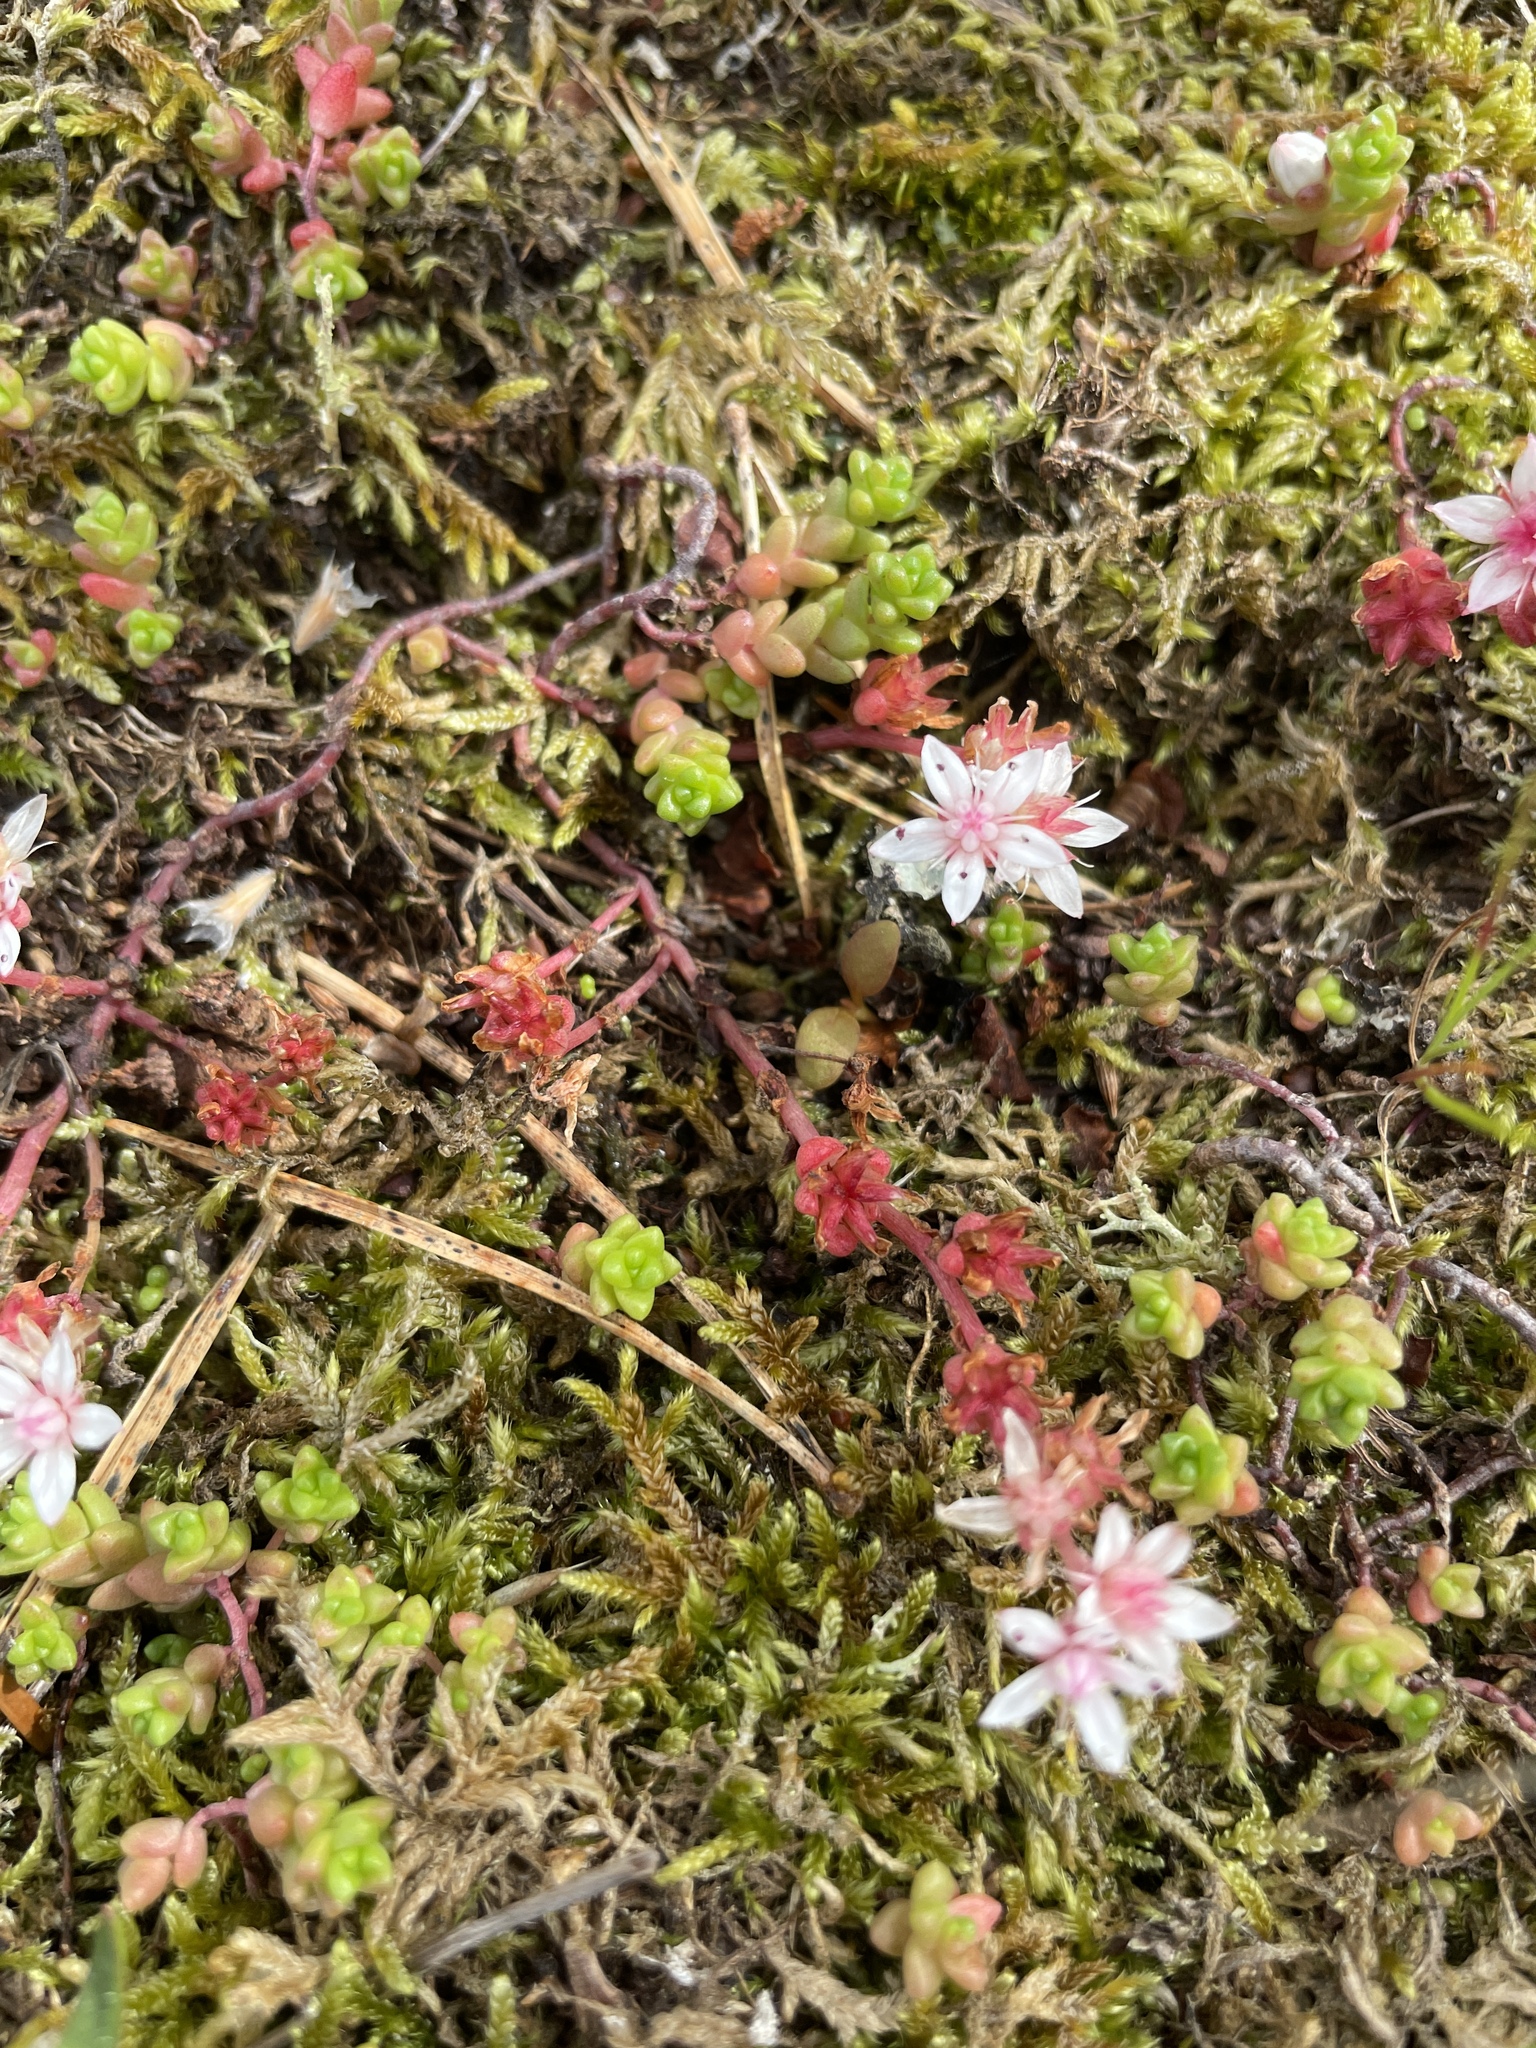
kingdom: Plantae
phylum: Tracheophyta
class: Magnoliopsida
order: Saxifragales
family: Crassulaceae
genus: Sedum
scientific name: Sedum anglicum
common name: English stonecrop
